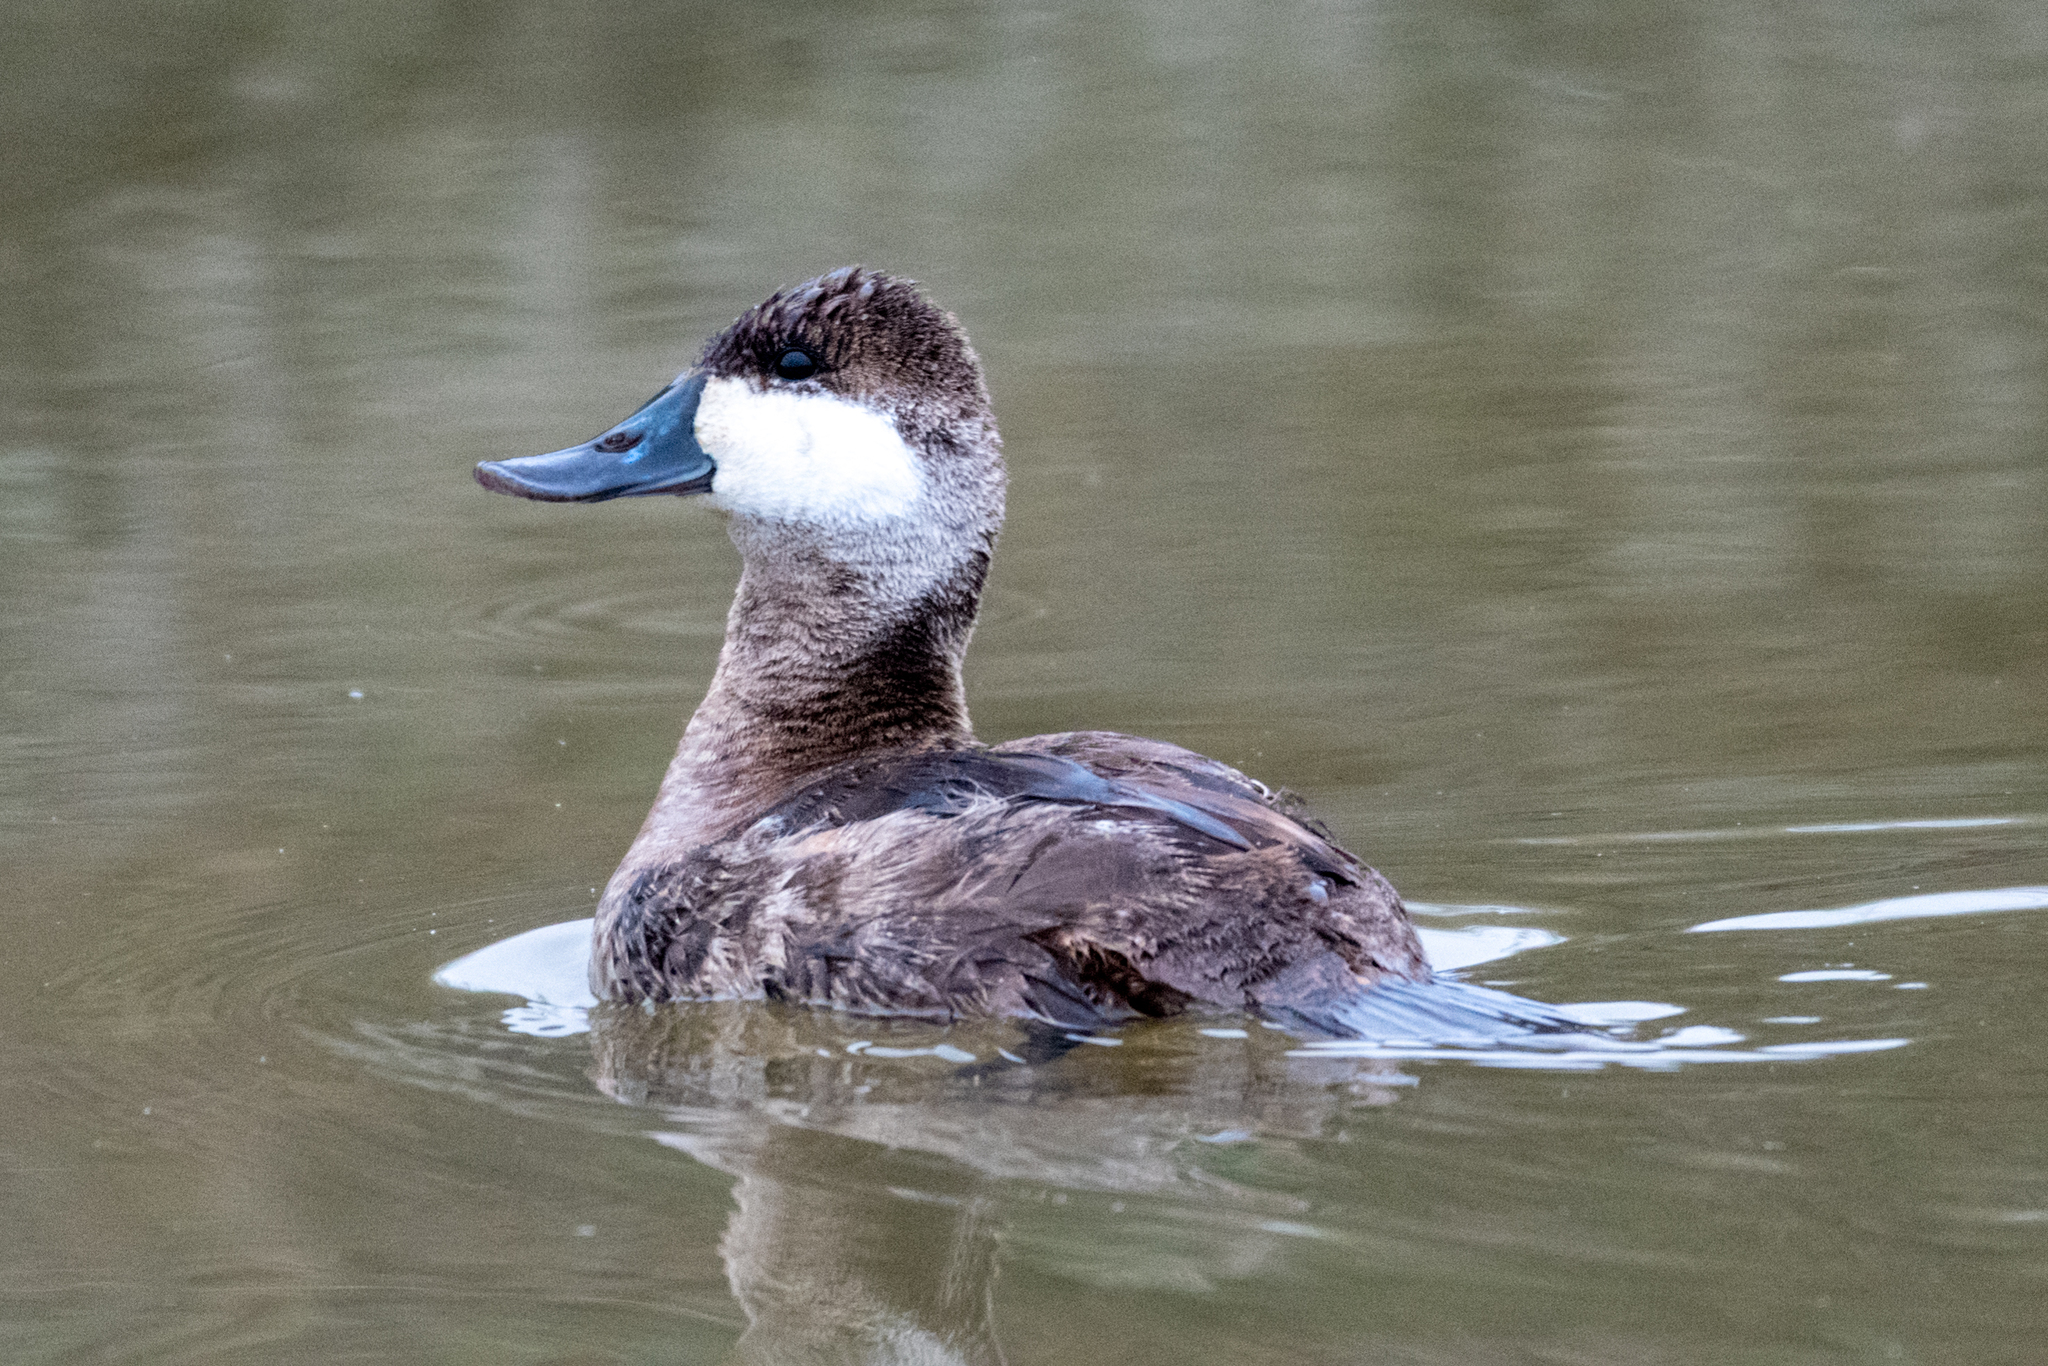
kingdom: Animalia
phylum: Chordata
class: Aves
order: Anseriformes
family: Anatidae
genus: Oxyura
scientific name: Oxyura jamaicensis
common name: Ruddy duck
